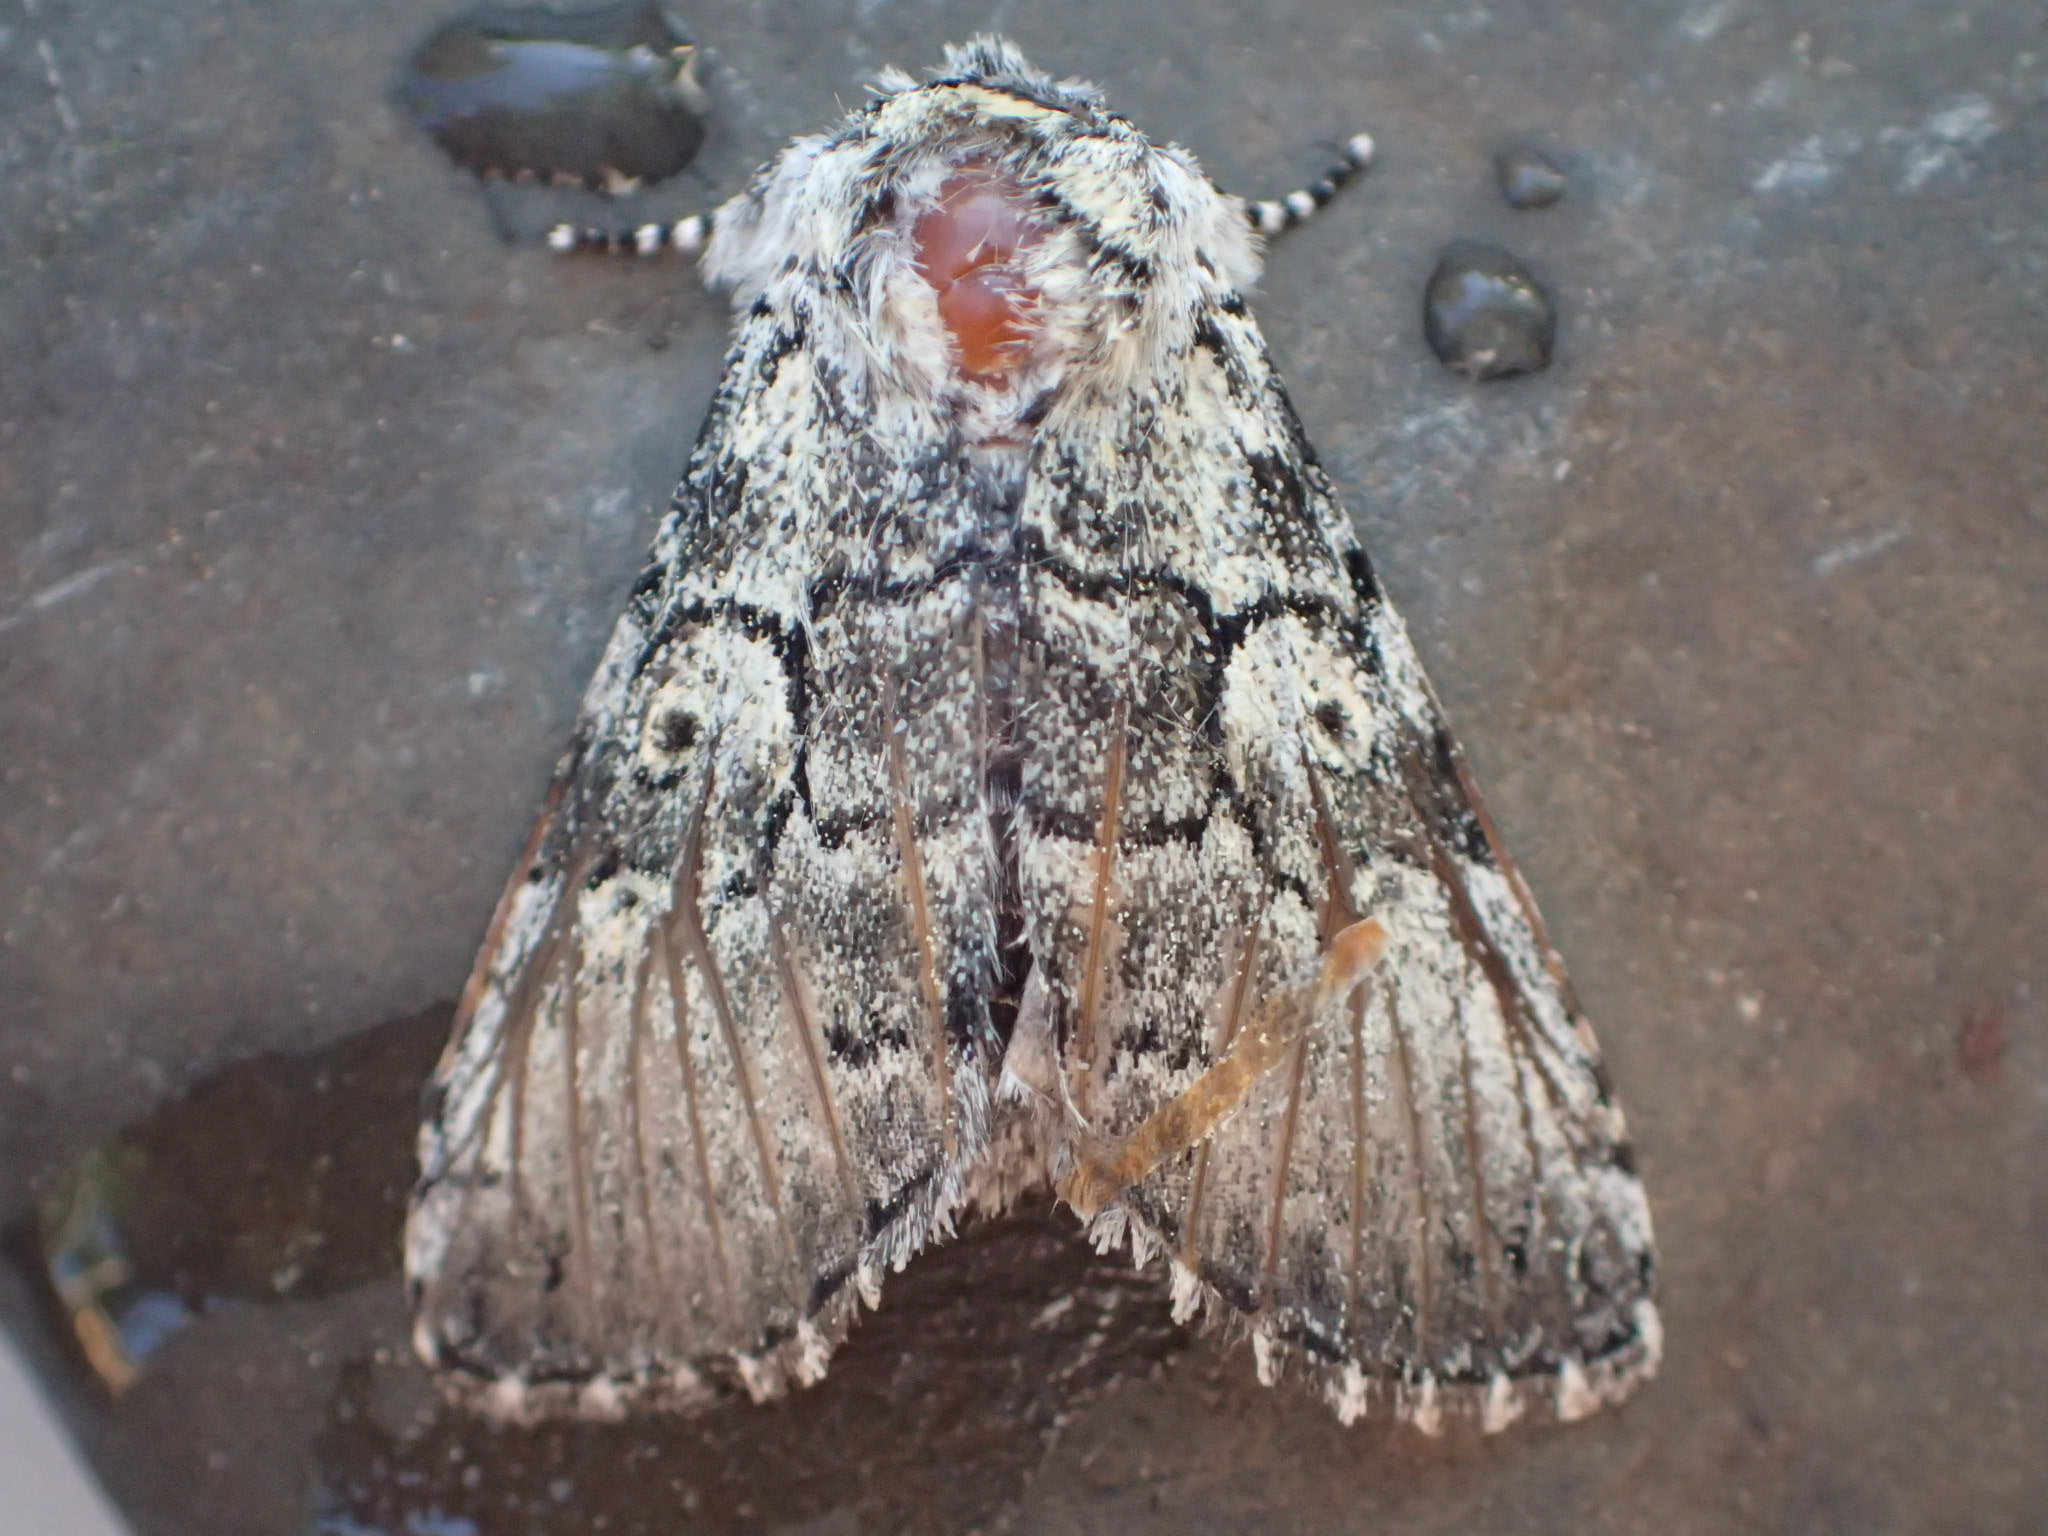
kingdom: Animalia
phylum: Arthropoda
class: Insecta
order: Lepidoptera
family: Noctuidae
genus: Charadra
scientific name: Charadra deridens
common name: Marbled tuffet
